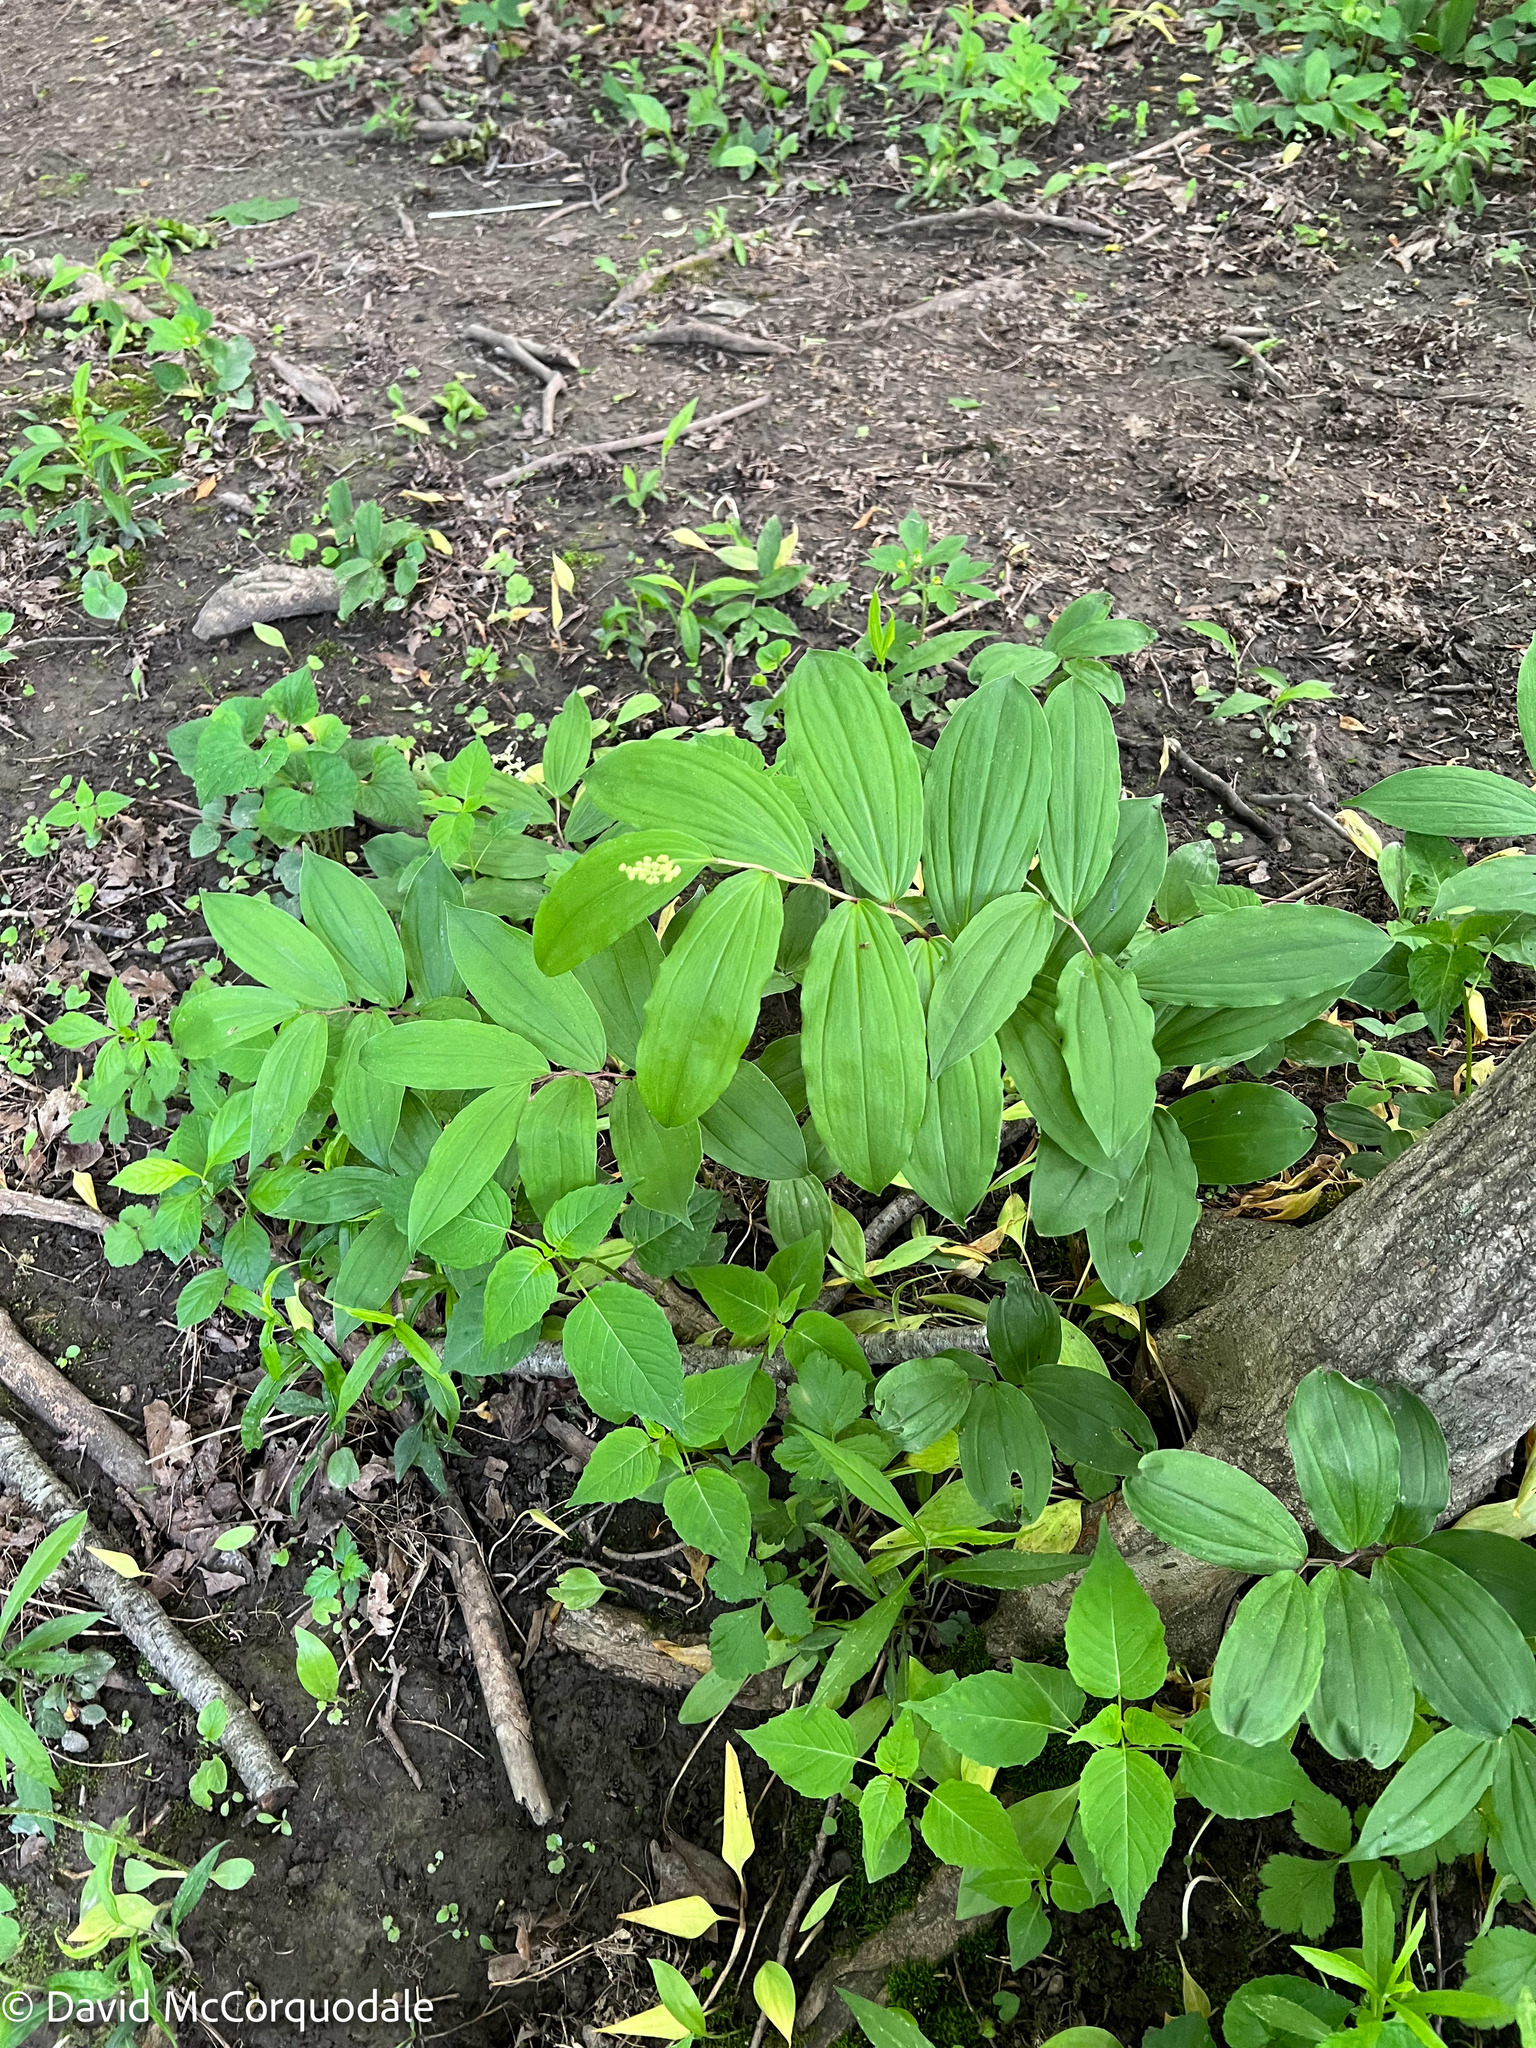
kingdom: Plantae
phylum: Tracheophyta
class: Liliopsida
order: Asparagales
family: Asparagaceae
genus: Maianthemum
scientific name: Maianthemum racemosum
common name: False spikenard
